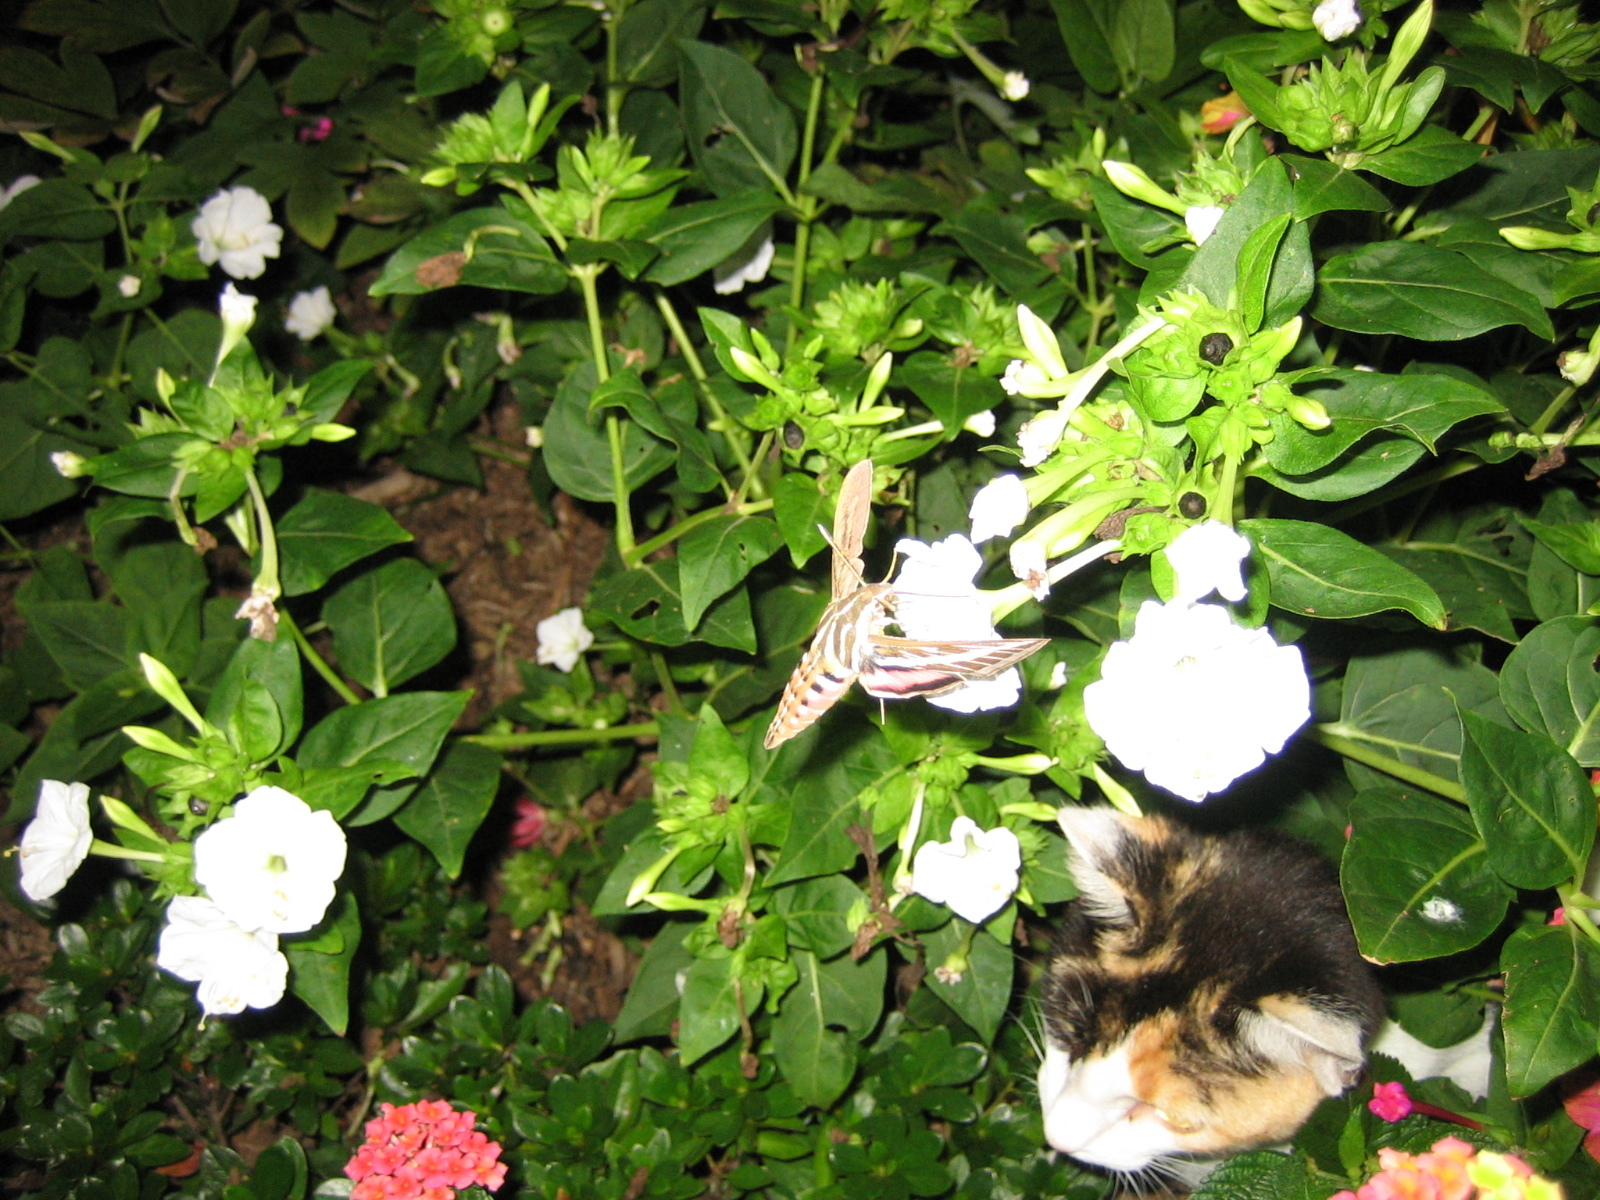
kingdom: Animalia
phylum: Arthropoda
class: Insecta
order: Lepidoptera
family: Sphingidae
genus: Hyles
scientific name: Hyles lineata
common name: White-lined sphinx
